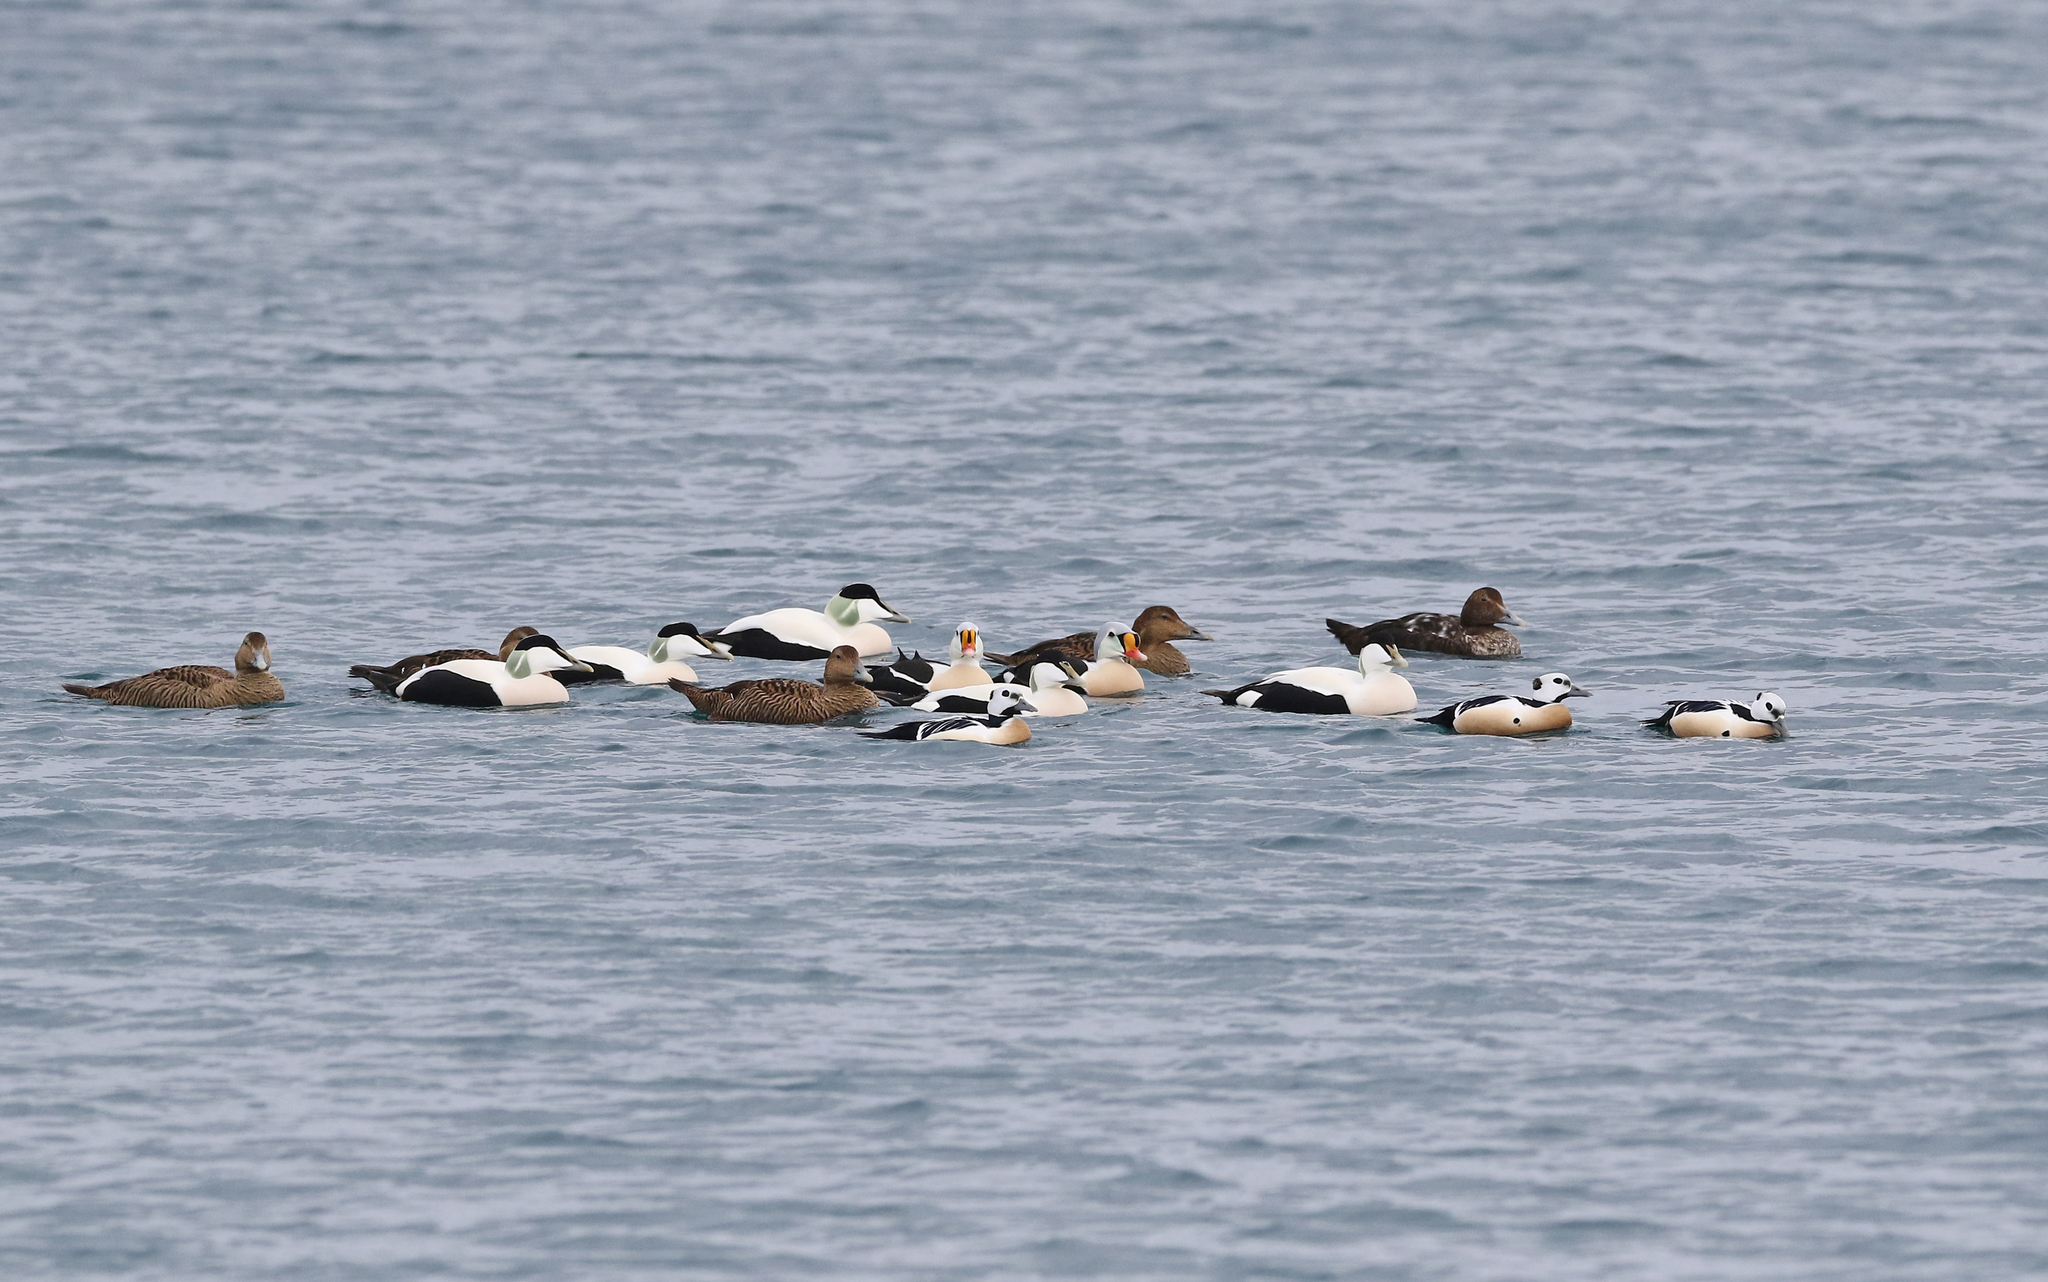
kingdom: Animalia
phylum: Chordata
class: Aves
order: Anseriformes
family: Anatidae
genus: Somateria
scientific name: Somateria spectabilis
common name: King eider
